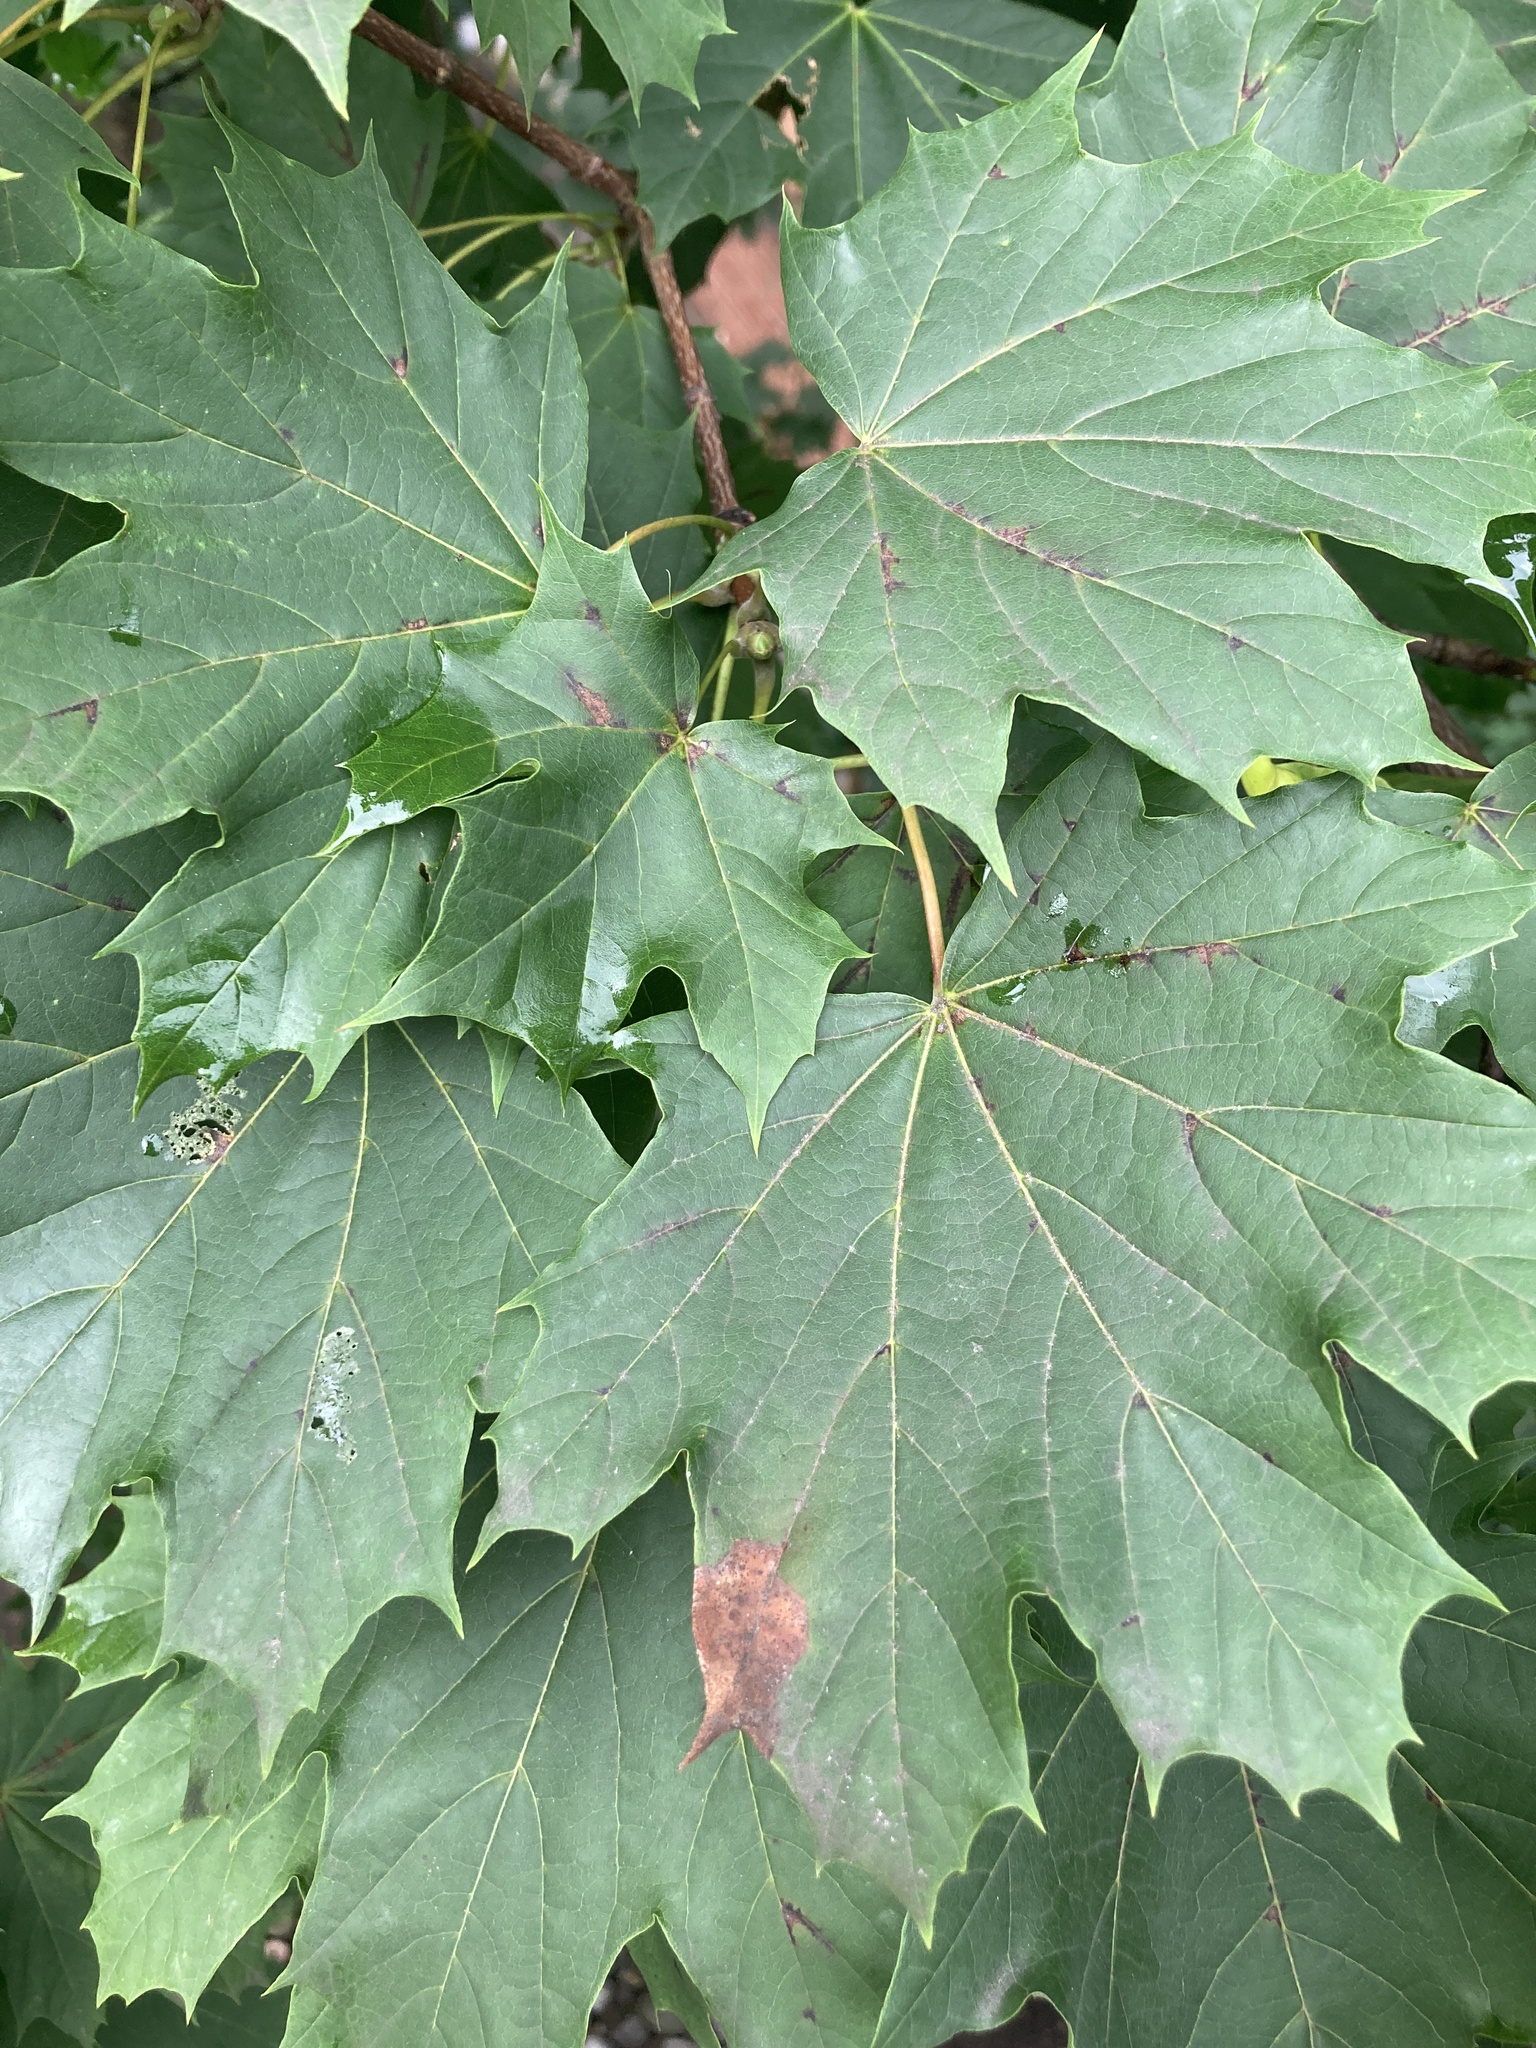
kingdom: Plantae
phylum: Tracheophyta
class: Magnoliopsida
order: Sapindales
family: Sapindaceae
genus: Acer
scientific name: Acer platanoides
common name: Norway maple
